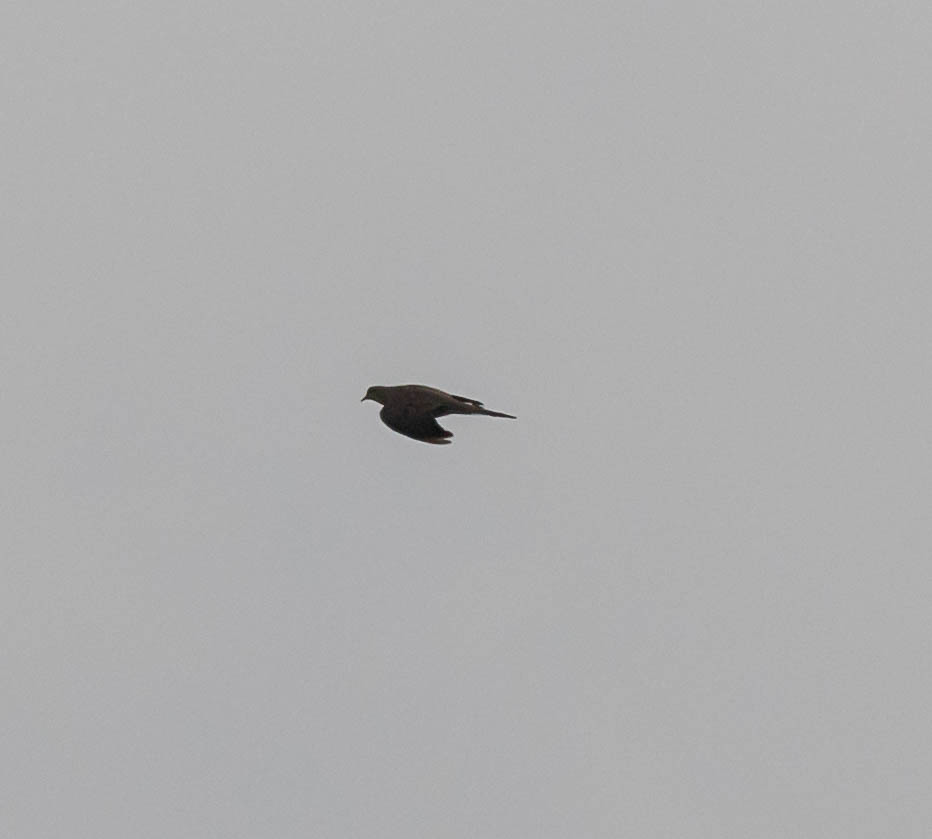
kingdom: Animalia
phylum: Chordata
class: Aves
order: Columbiformes
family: Columbidae
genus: Zenaida
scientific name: Zenaida macroura
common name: Mourning dove
